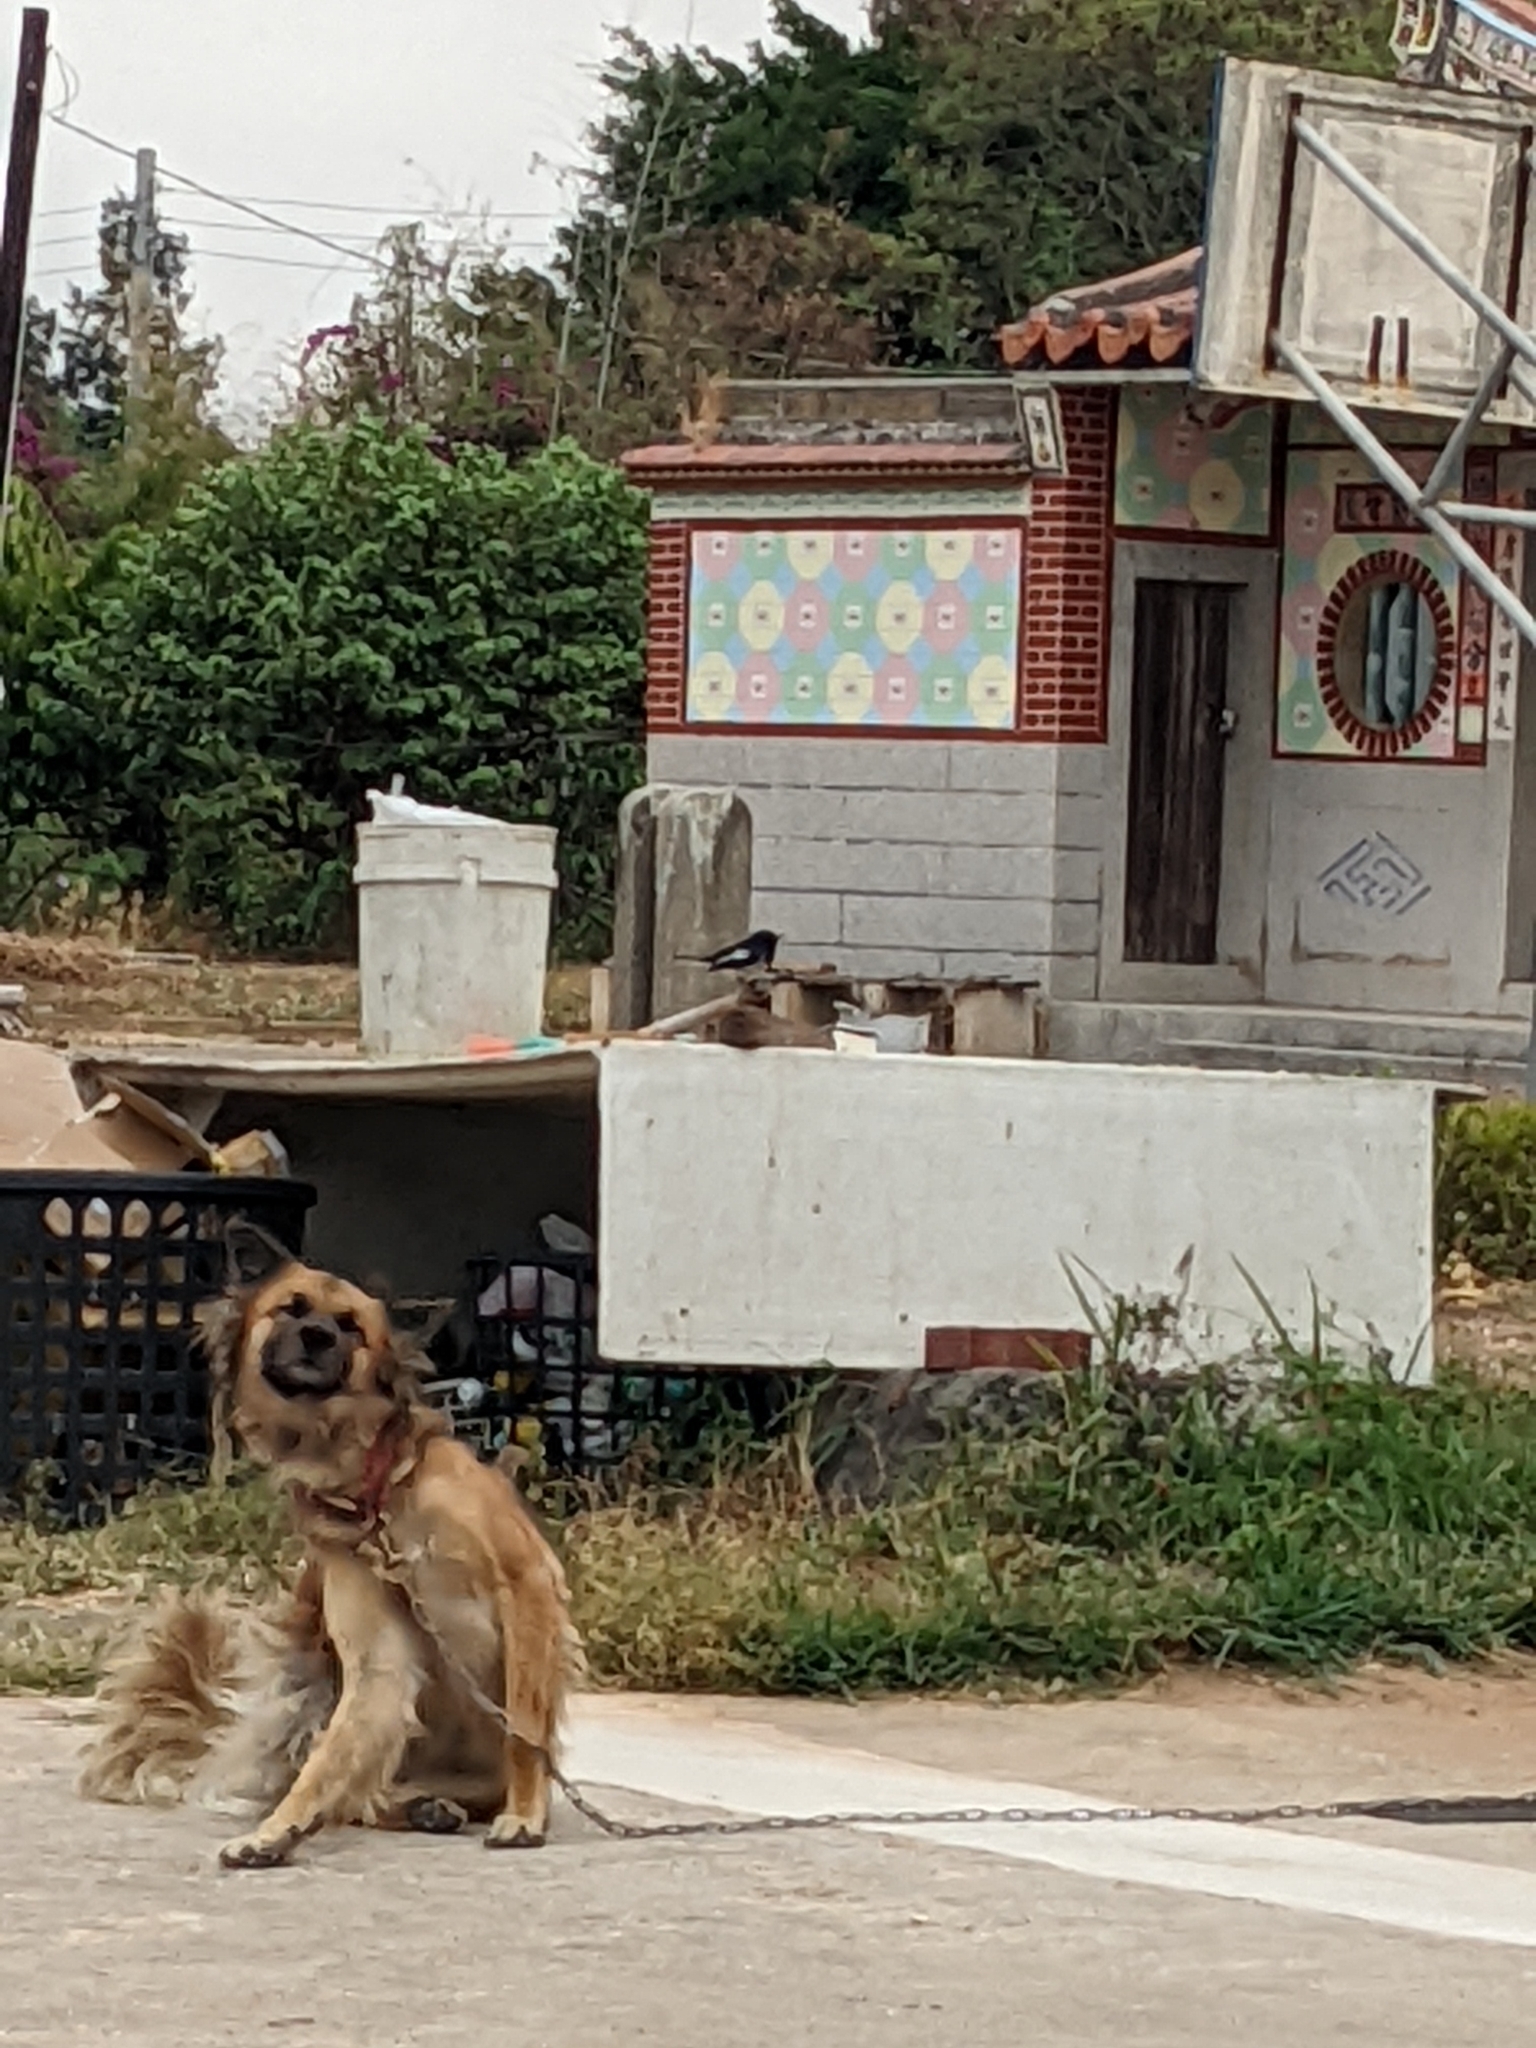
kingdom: Animalia
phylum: Chordata
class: Aves
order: Passeriformes
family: Muscicapidae
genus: Copsychus
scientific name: Copsychus saularis
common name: Oriental magpie-robin
